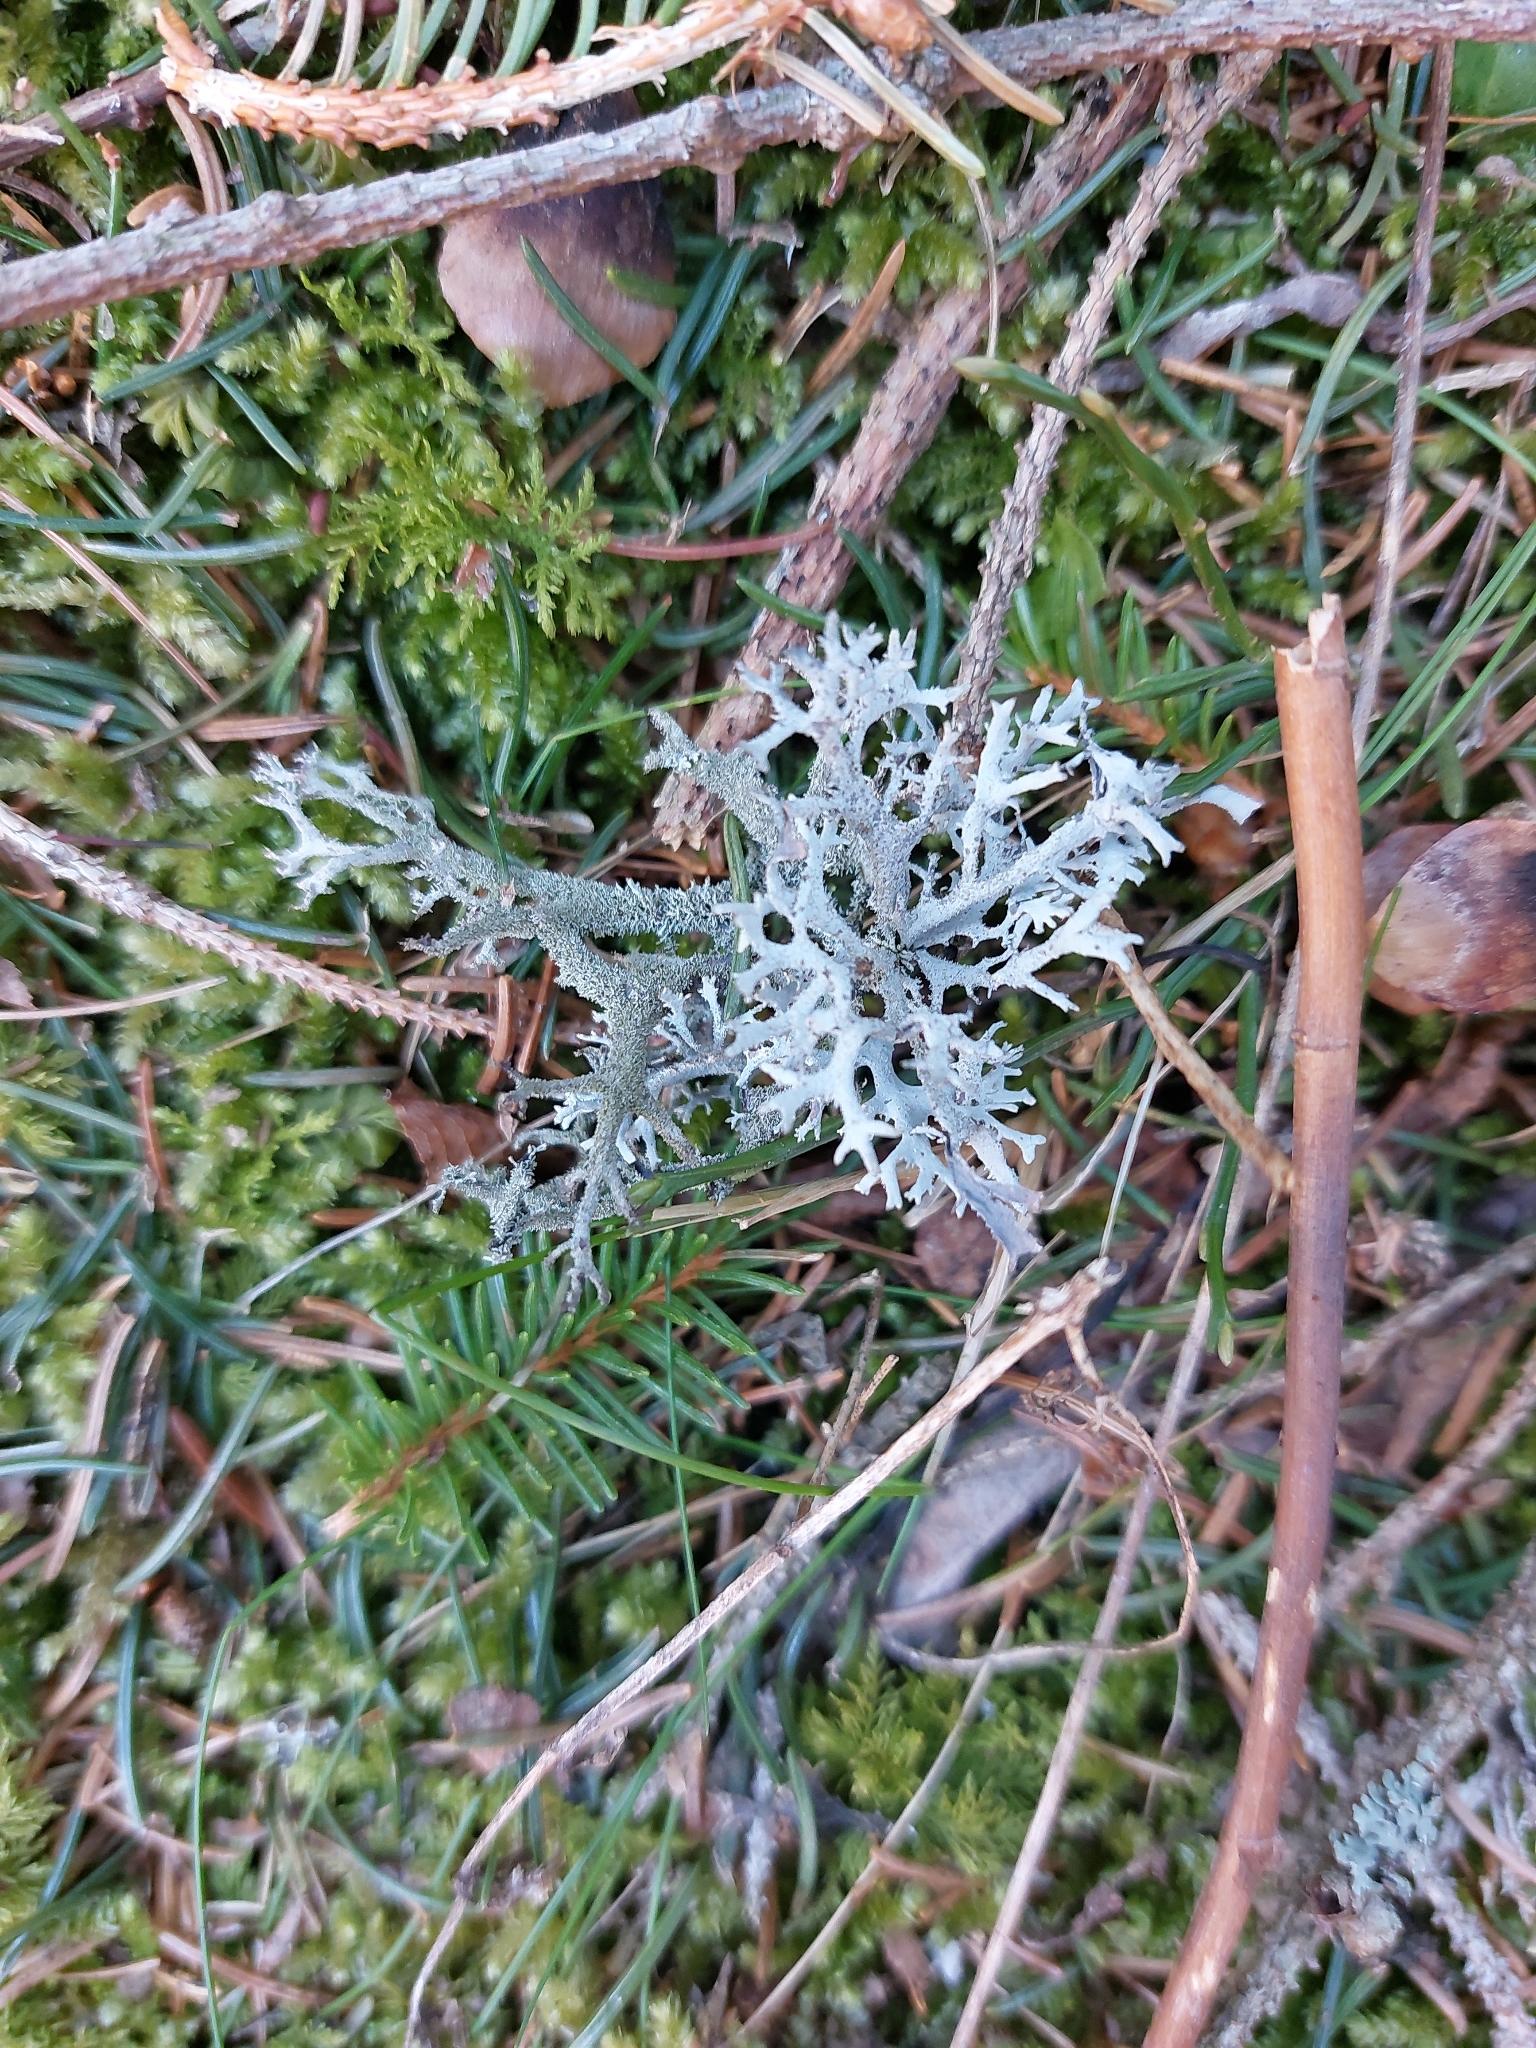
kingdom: Fungi
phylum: Ascomycota
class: Lecanoromycetes
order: Lecanorales
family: Parmeliaceae
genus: Pseudevernia
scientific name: Pseudevernia furfuracea
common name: Tree moss
